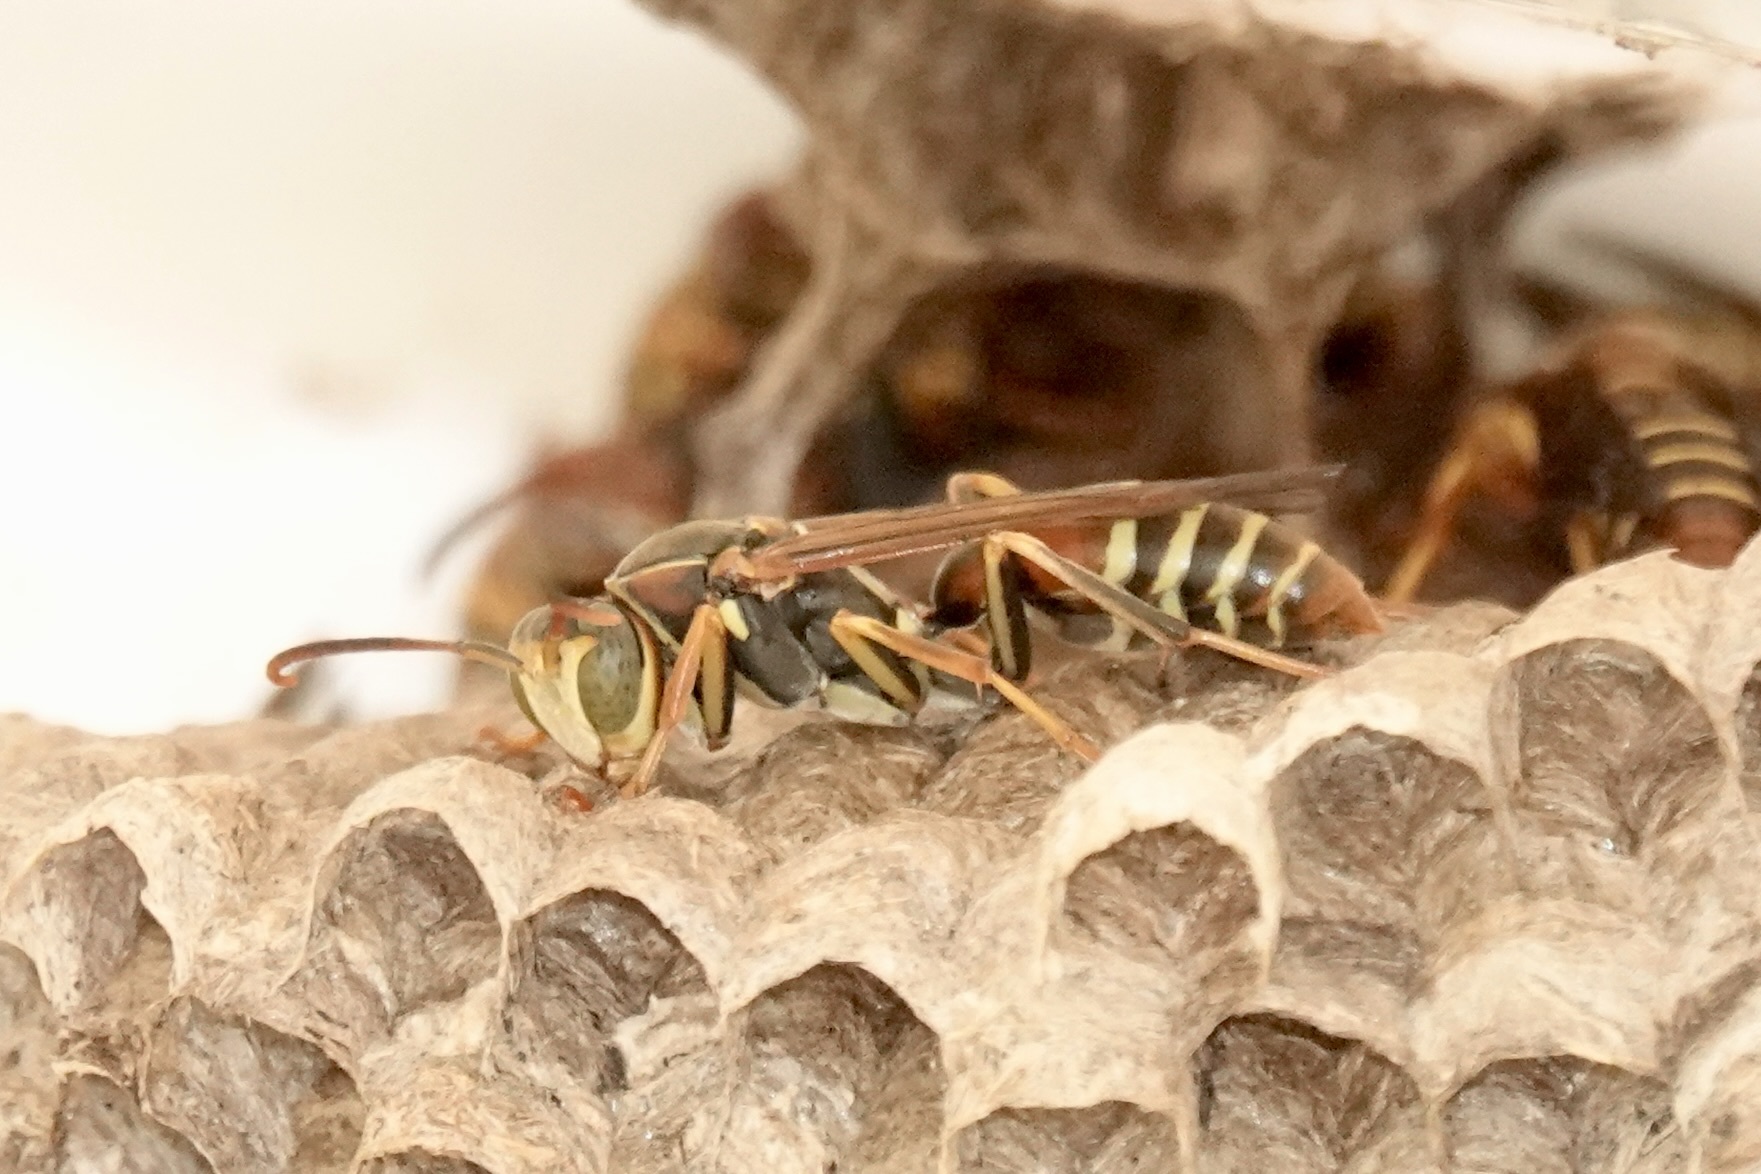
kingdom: Animalia
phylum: Arthropoda
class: Insecta
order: Hymenoptera
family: Eumenidae
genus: Polistes
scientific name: Polistes dorsalis
